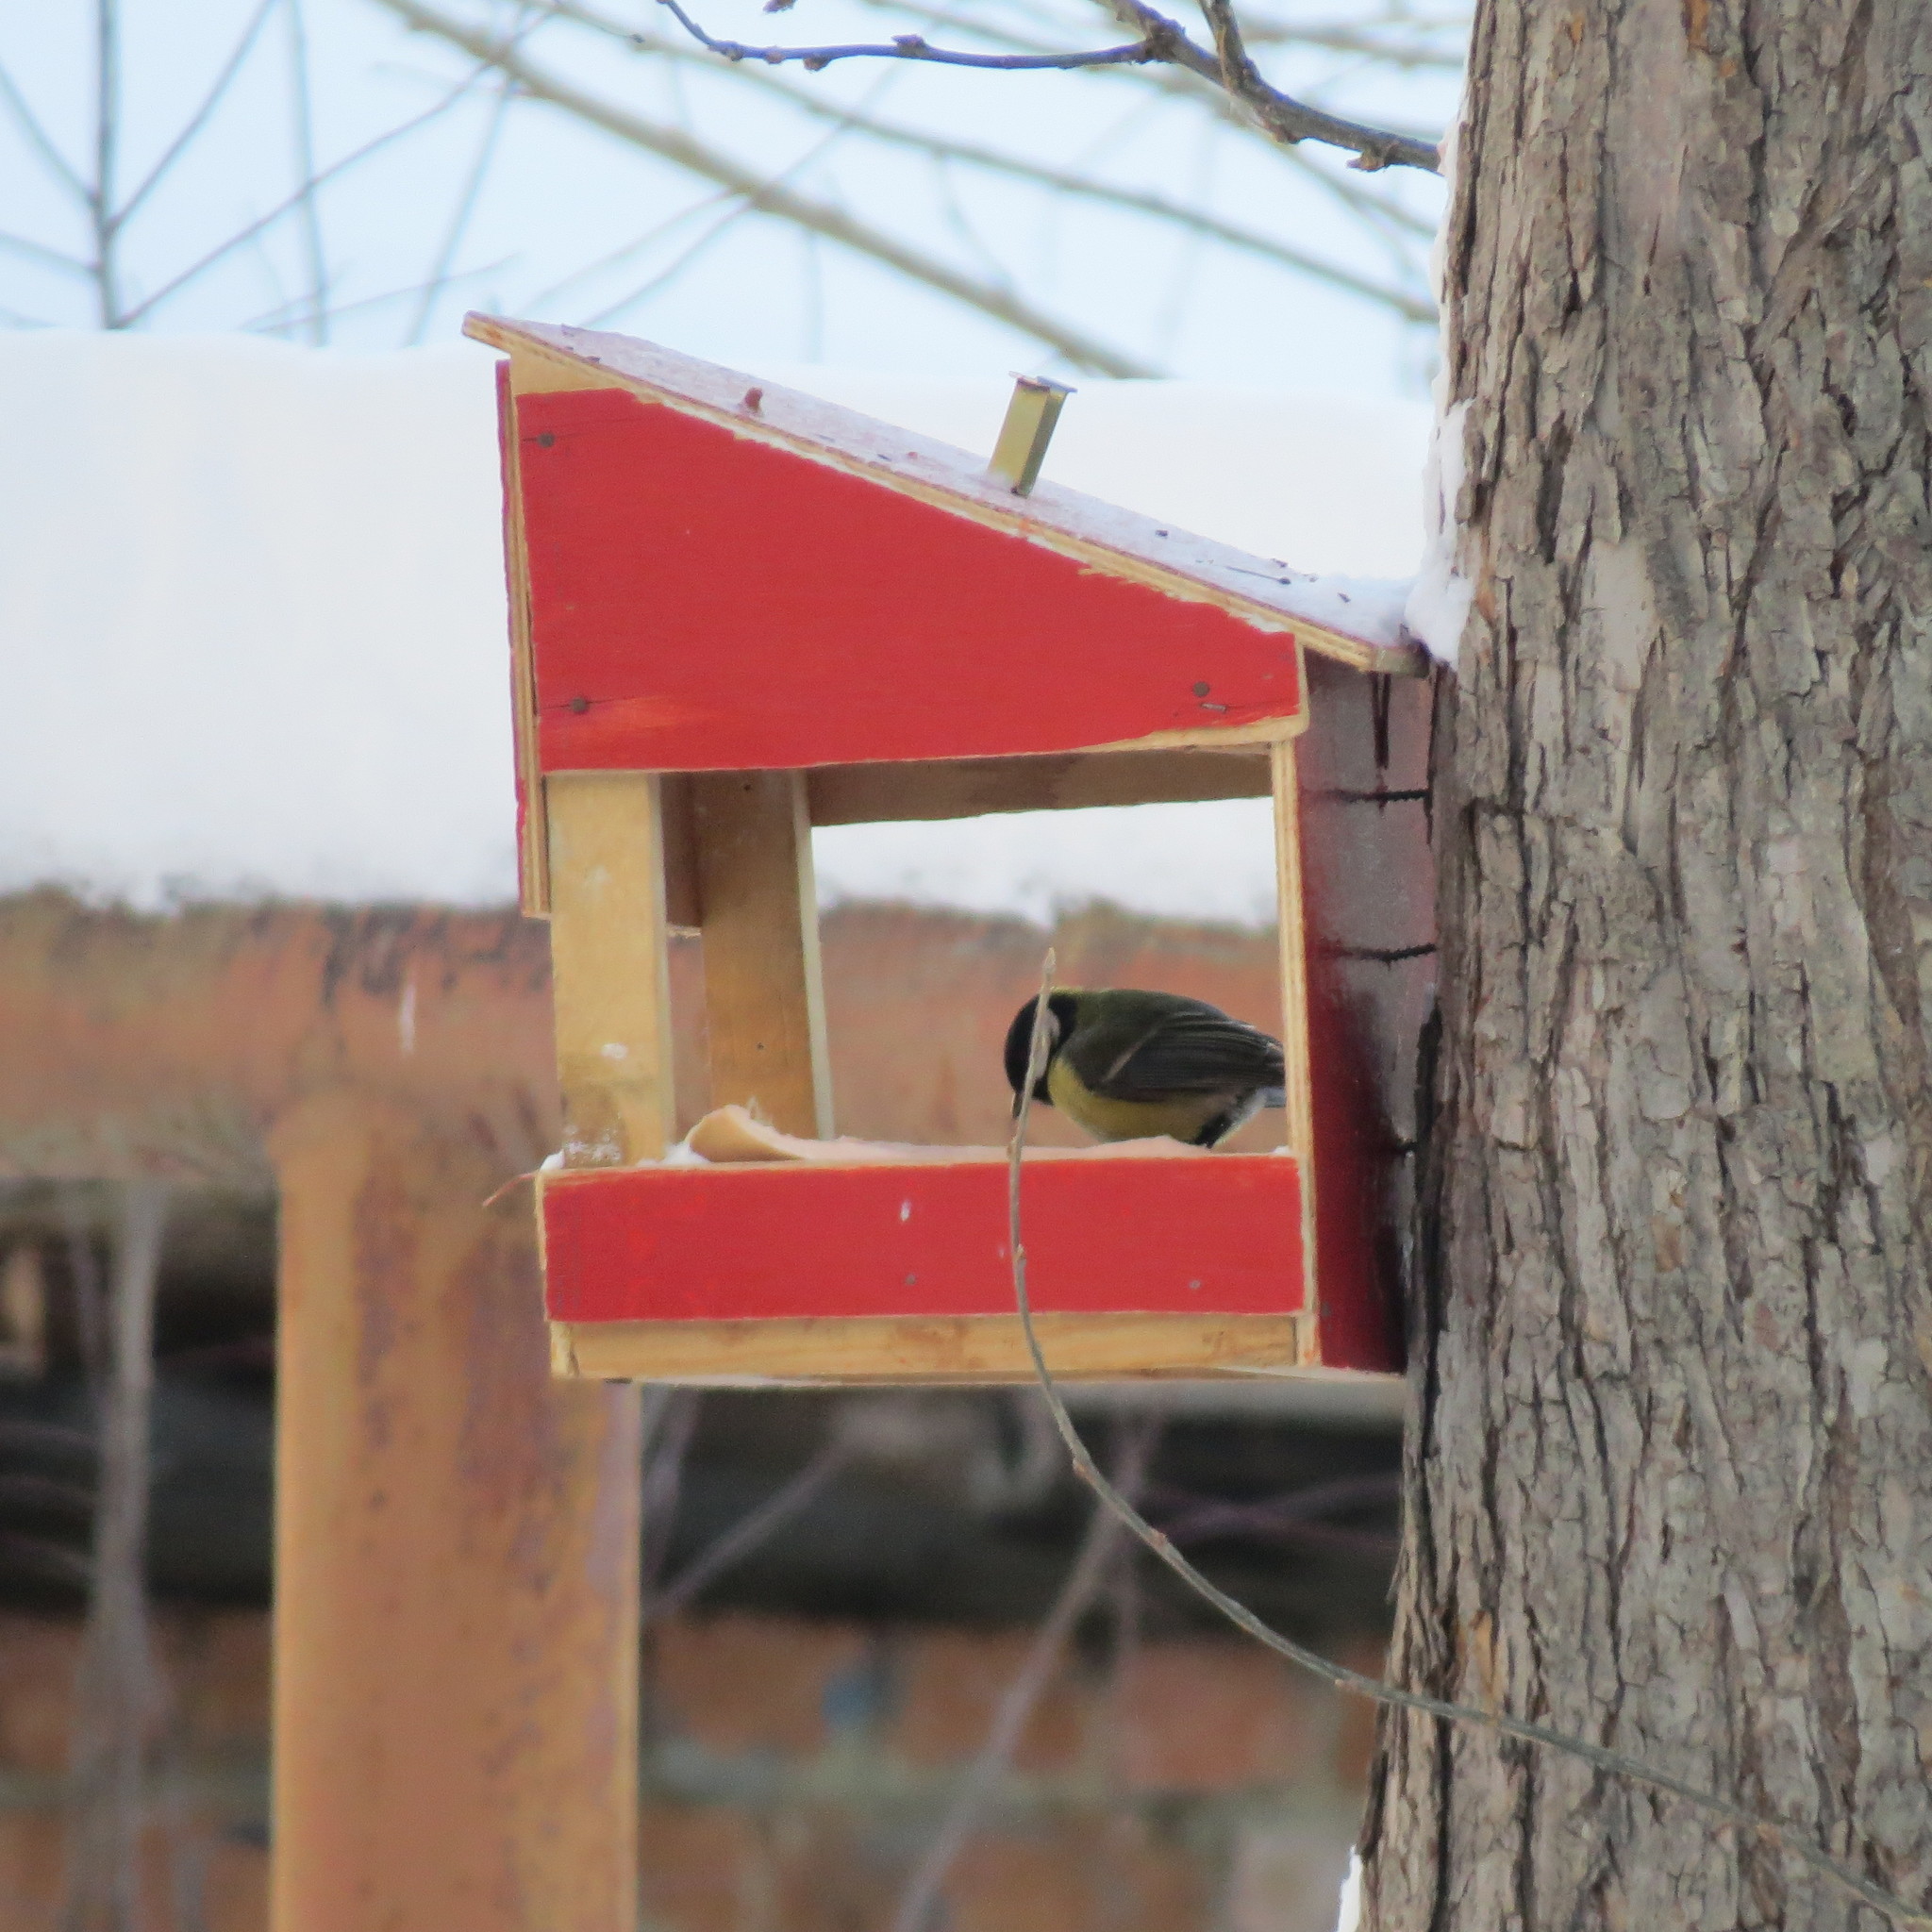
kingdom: Animalia
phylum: Chordata
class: Aves
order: Passeriformes
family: Paridae
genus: Parus
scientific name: Parus major
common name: Great tit
